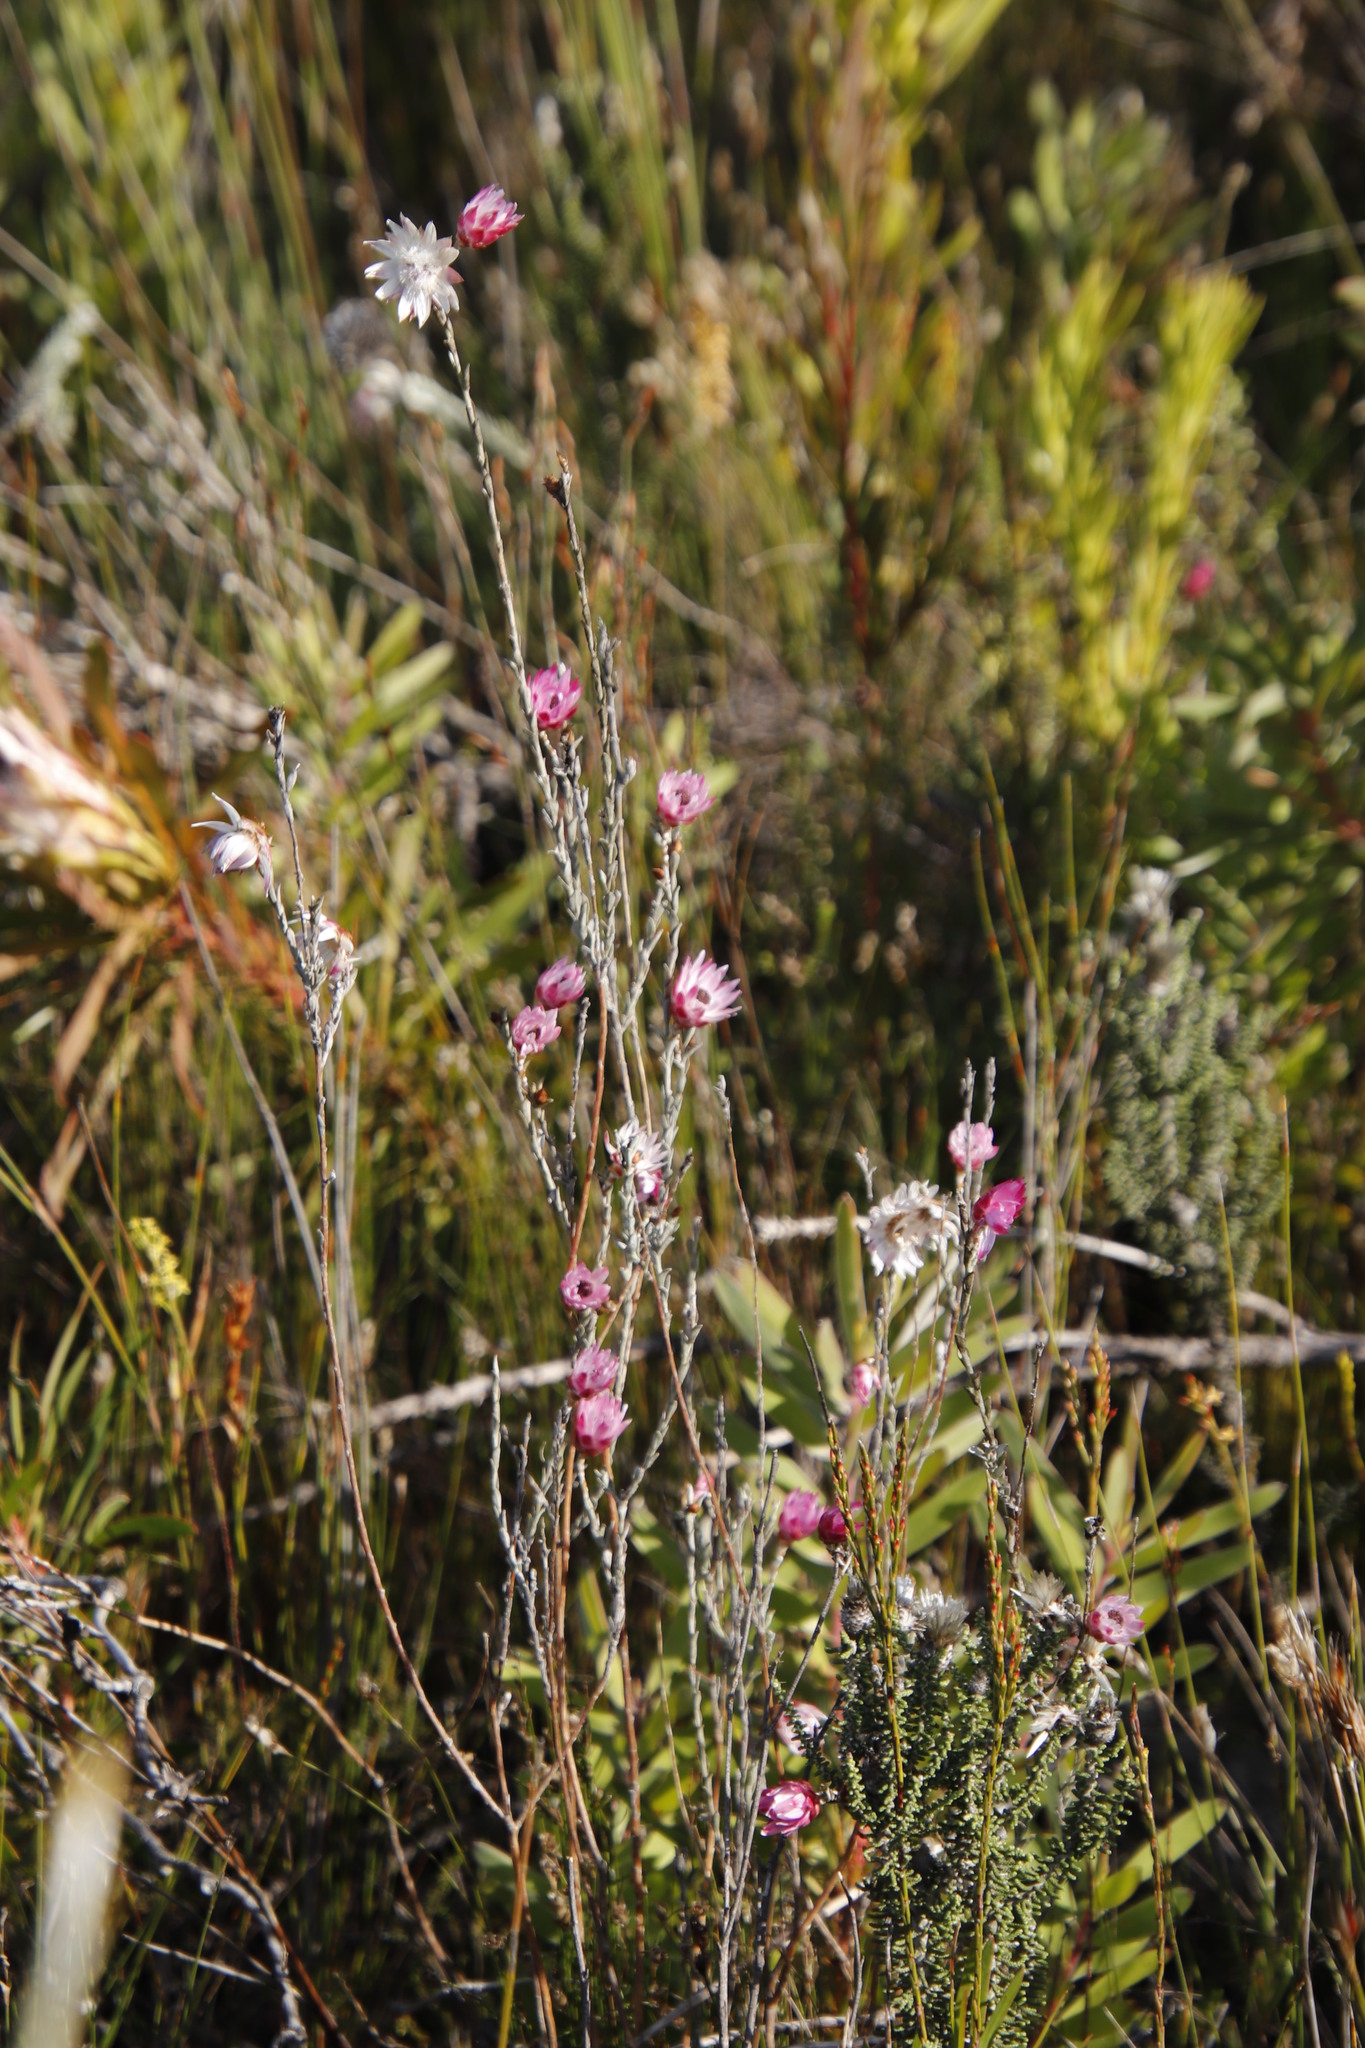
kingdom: Plantae
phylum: Tracheophyta
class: Magnoliopsida
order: Asterales
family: Asteraceae
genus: Syncarpha
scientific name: Syncarpha canescens
